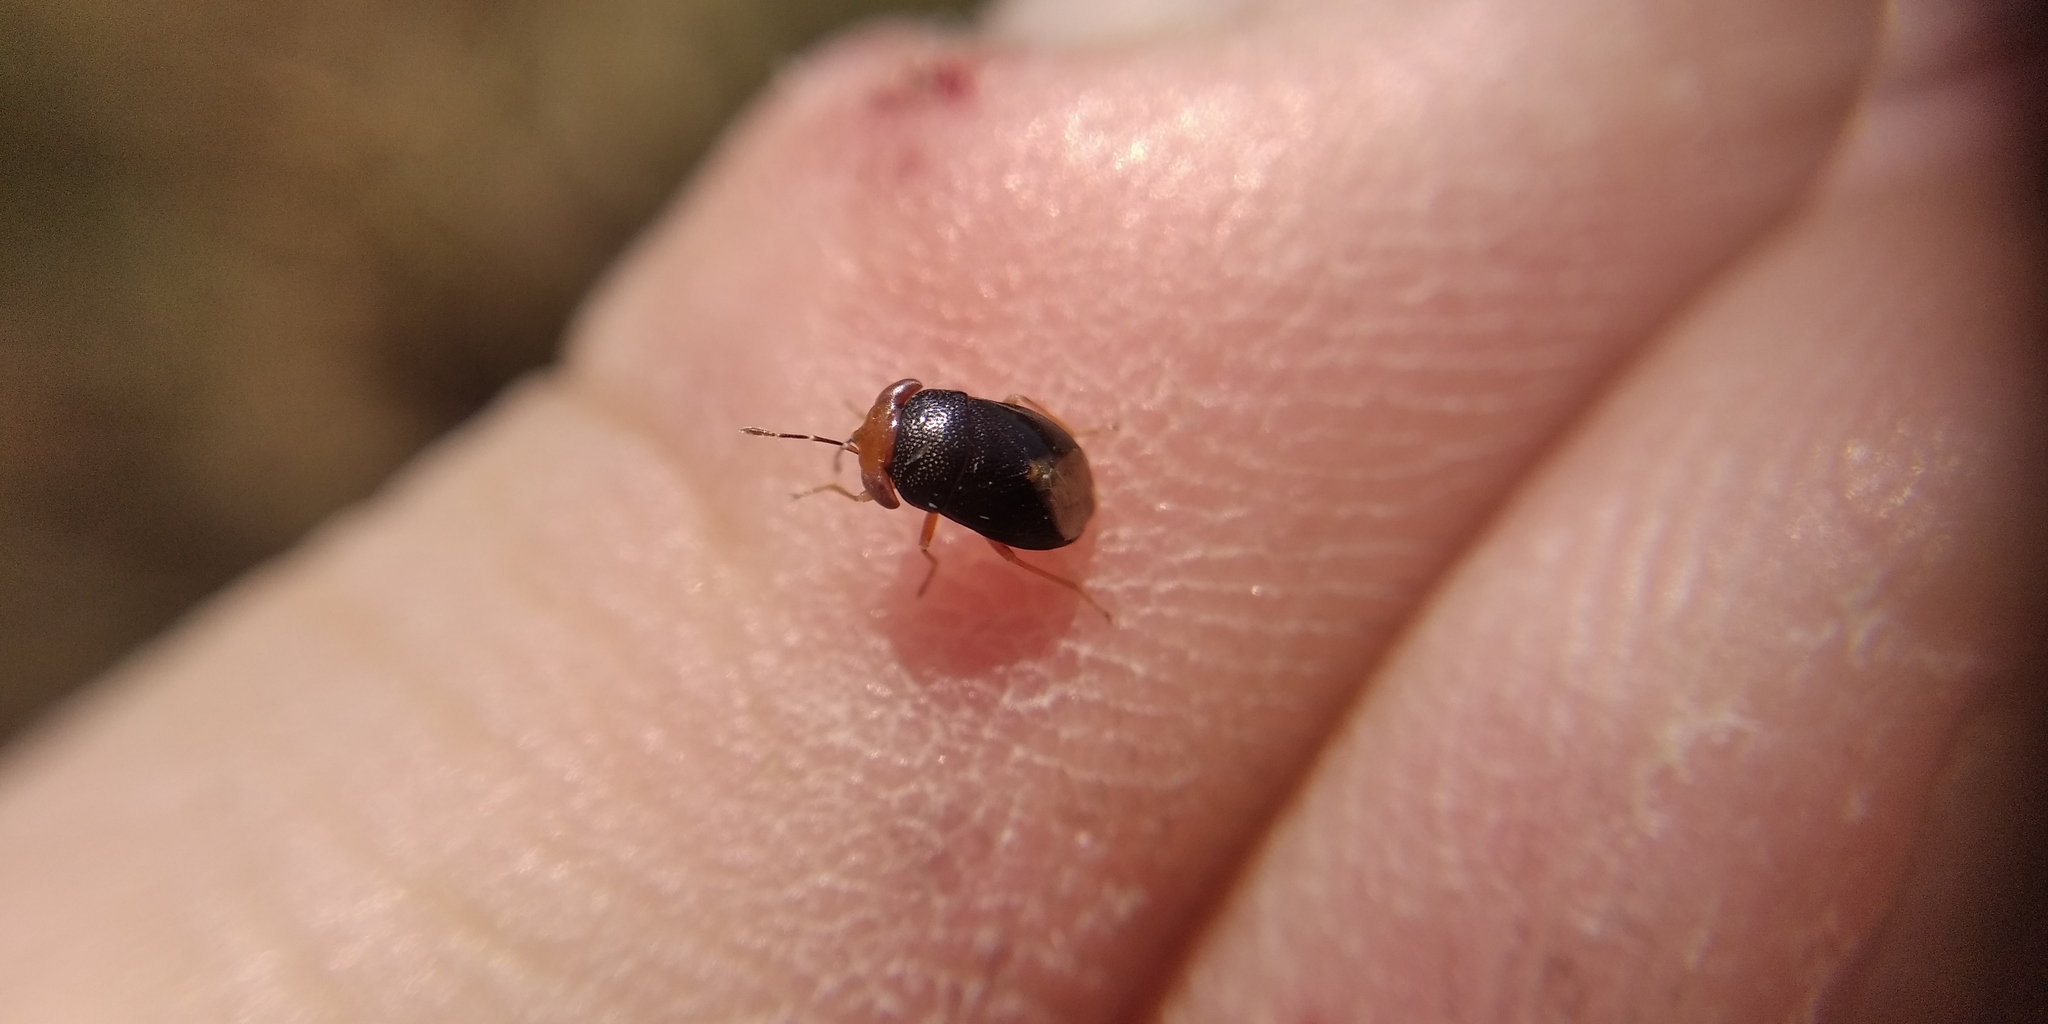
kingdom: Animalia
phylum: Arthropoda
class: Insecta
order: Hemiptera
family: Geocoridae
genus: Geocoris
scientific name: Geocoris erythrocephala
